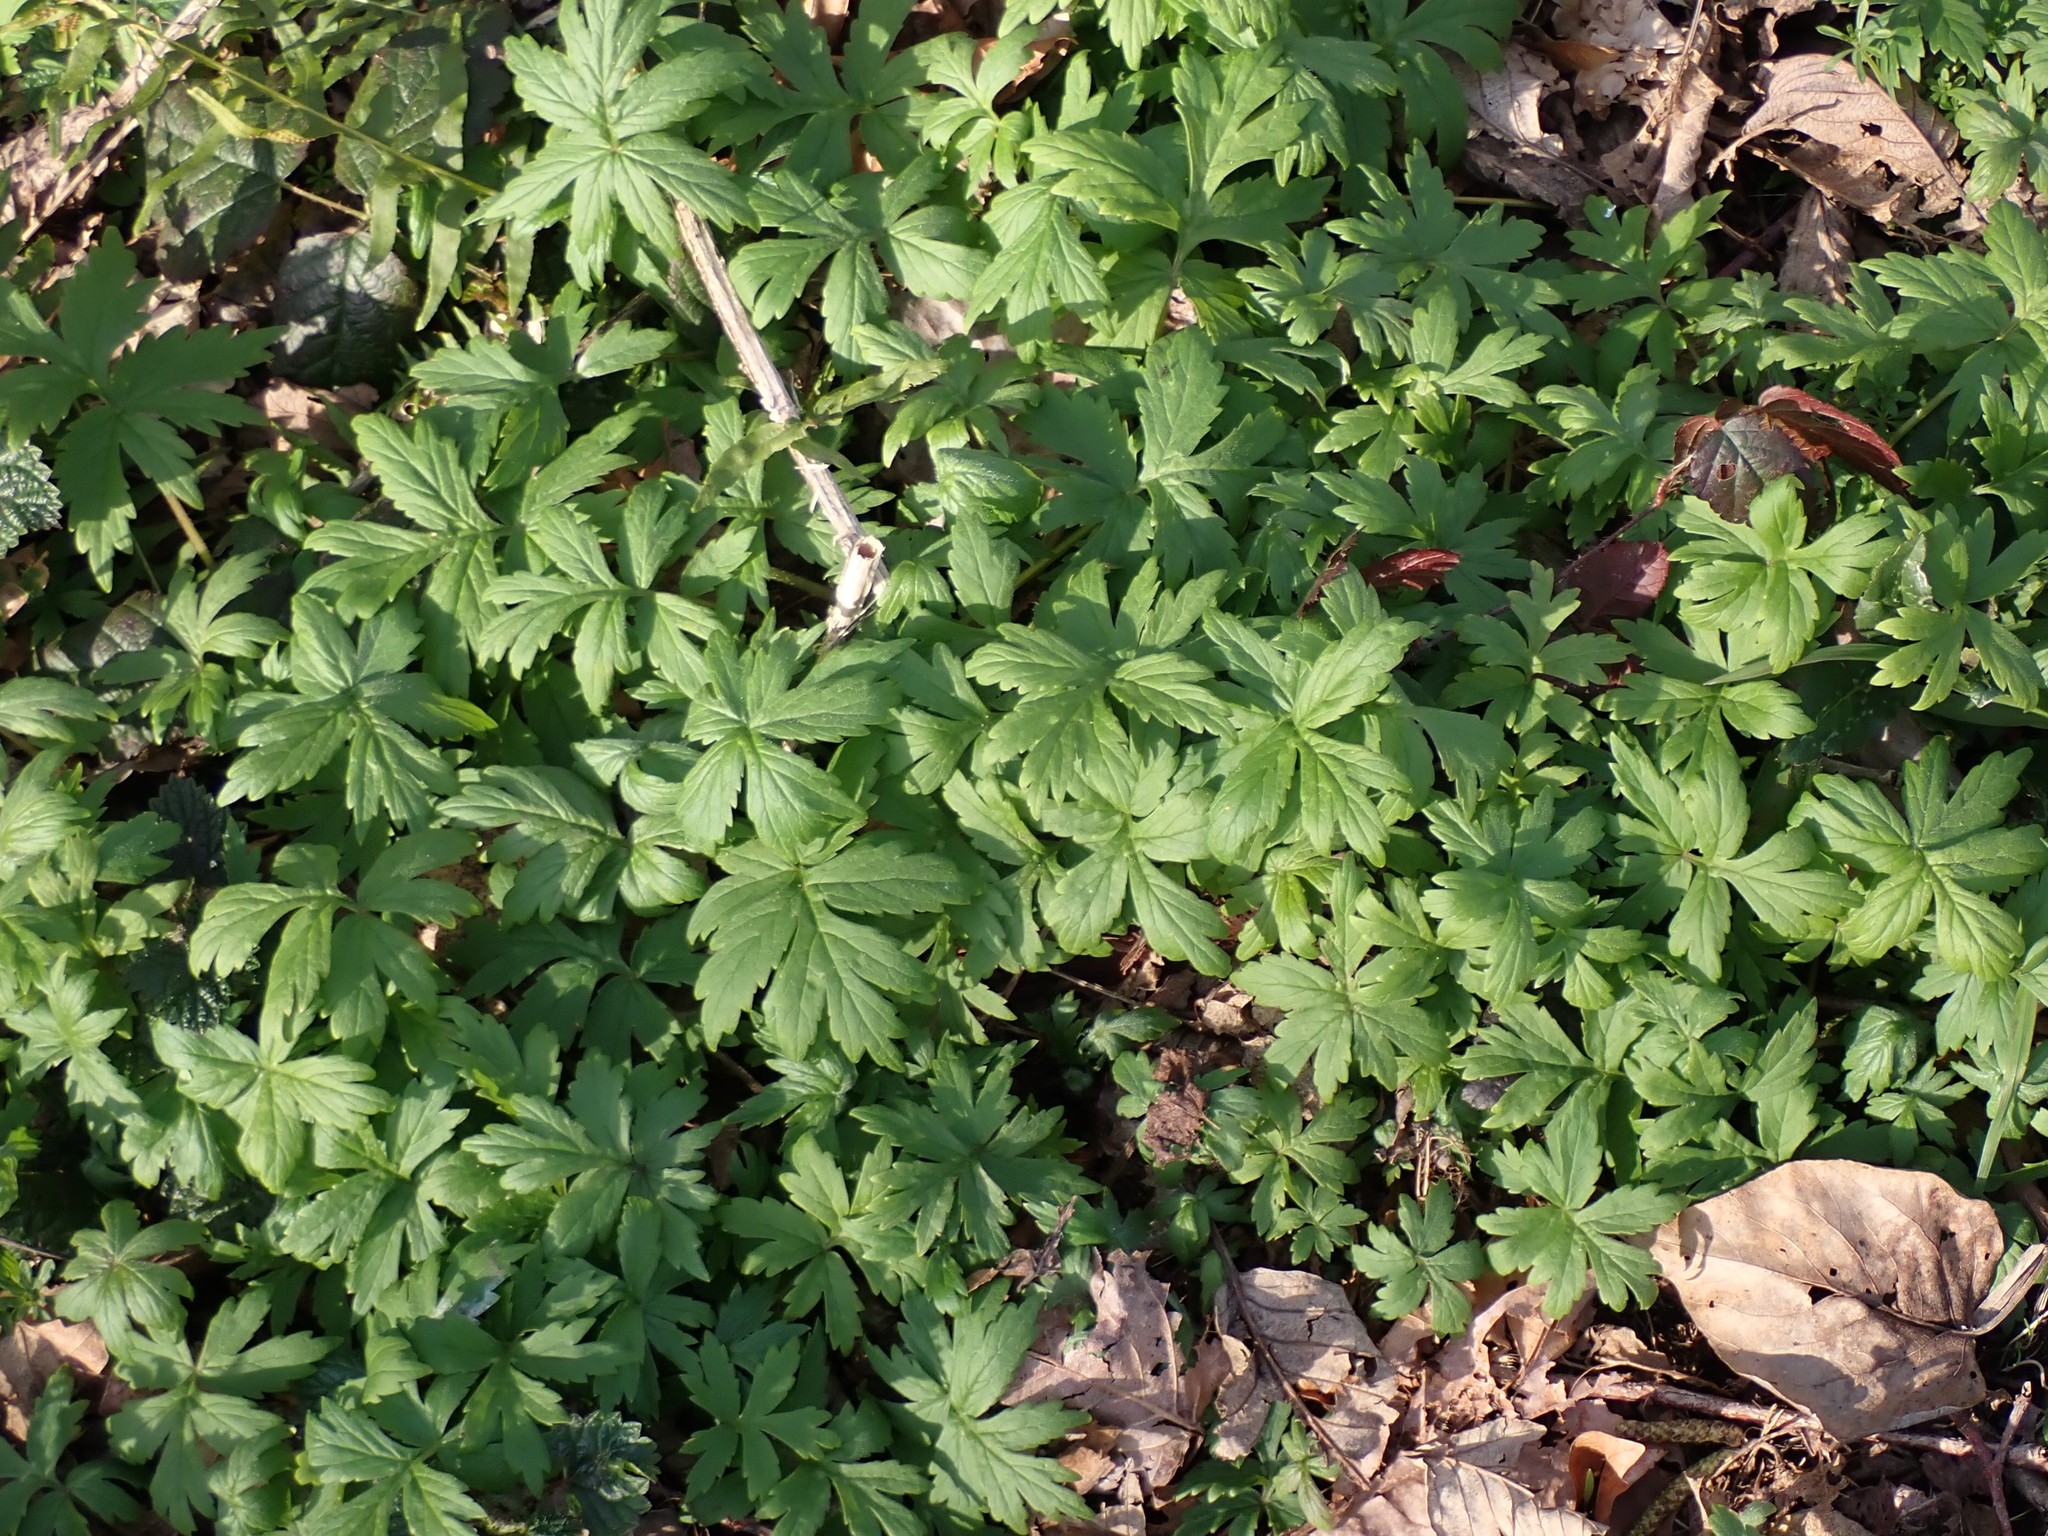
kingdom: Plantae
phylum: Tracheophyta
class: Magnoliopsida
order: Boraginales
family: Hydrophyllaceae
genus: Hydrophyllum
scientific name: Hydrophyllum tenuipes
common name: Pacific waterleaf
